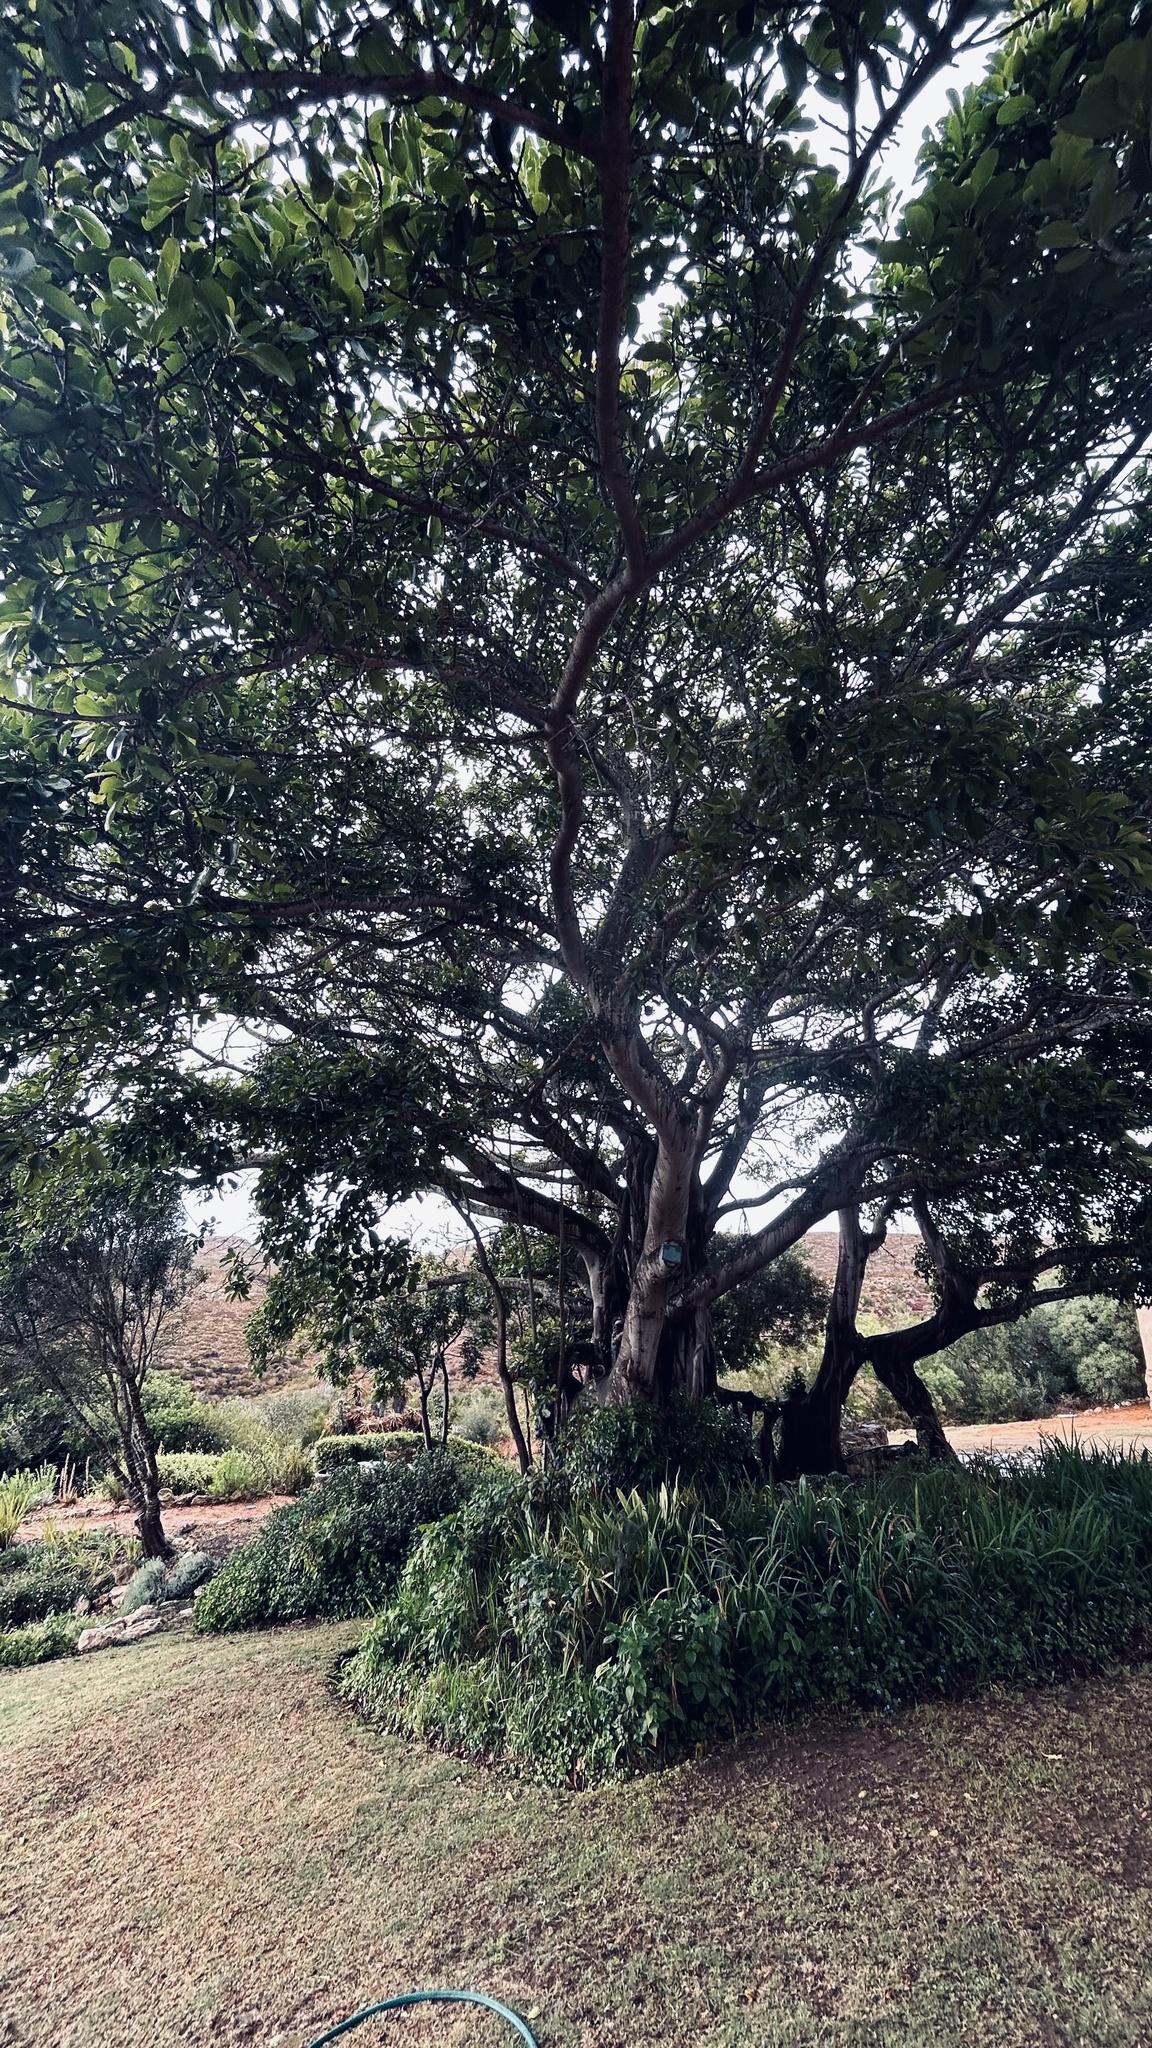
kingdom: Plantae
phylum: Tracheophyta
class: Magnoliopsida
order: Rosales
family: Moraceae
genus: Ficus
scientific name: Ficus thonningii
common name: Fig
